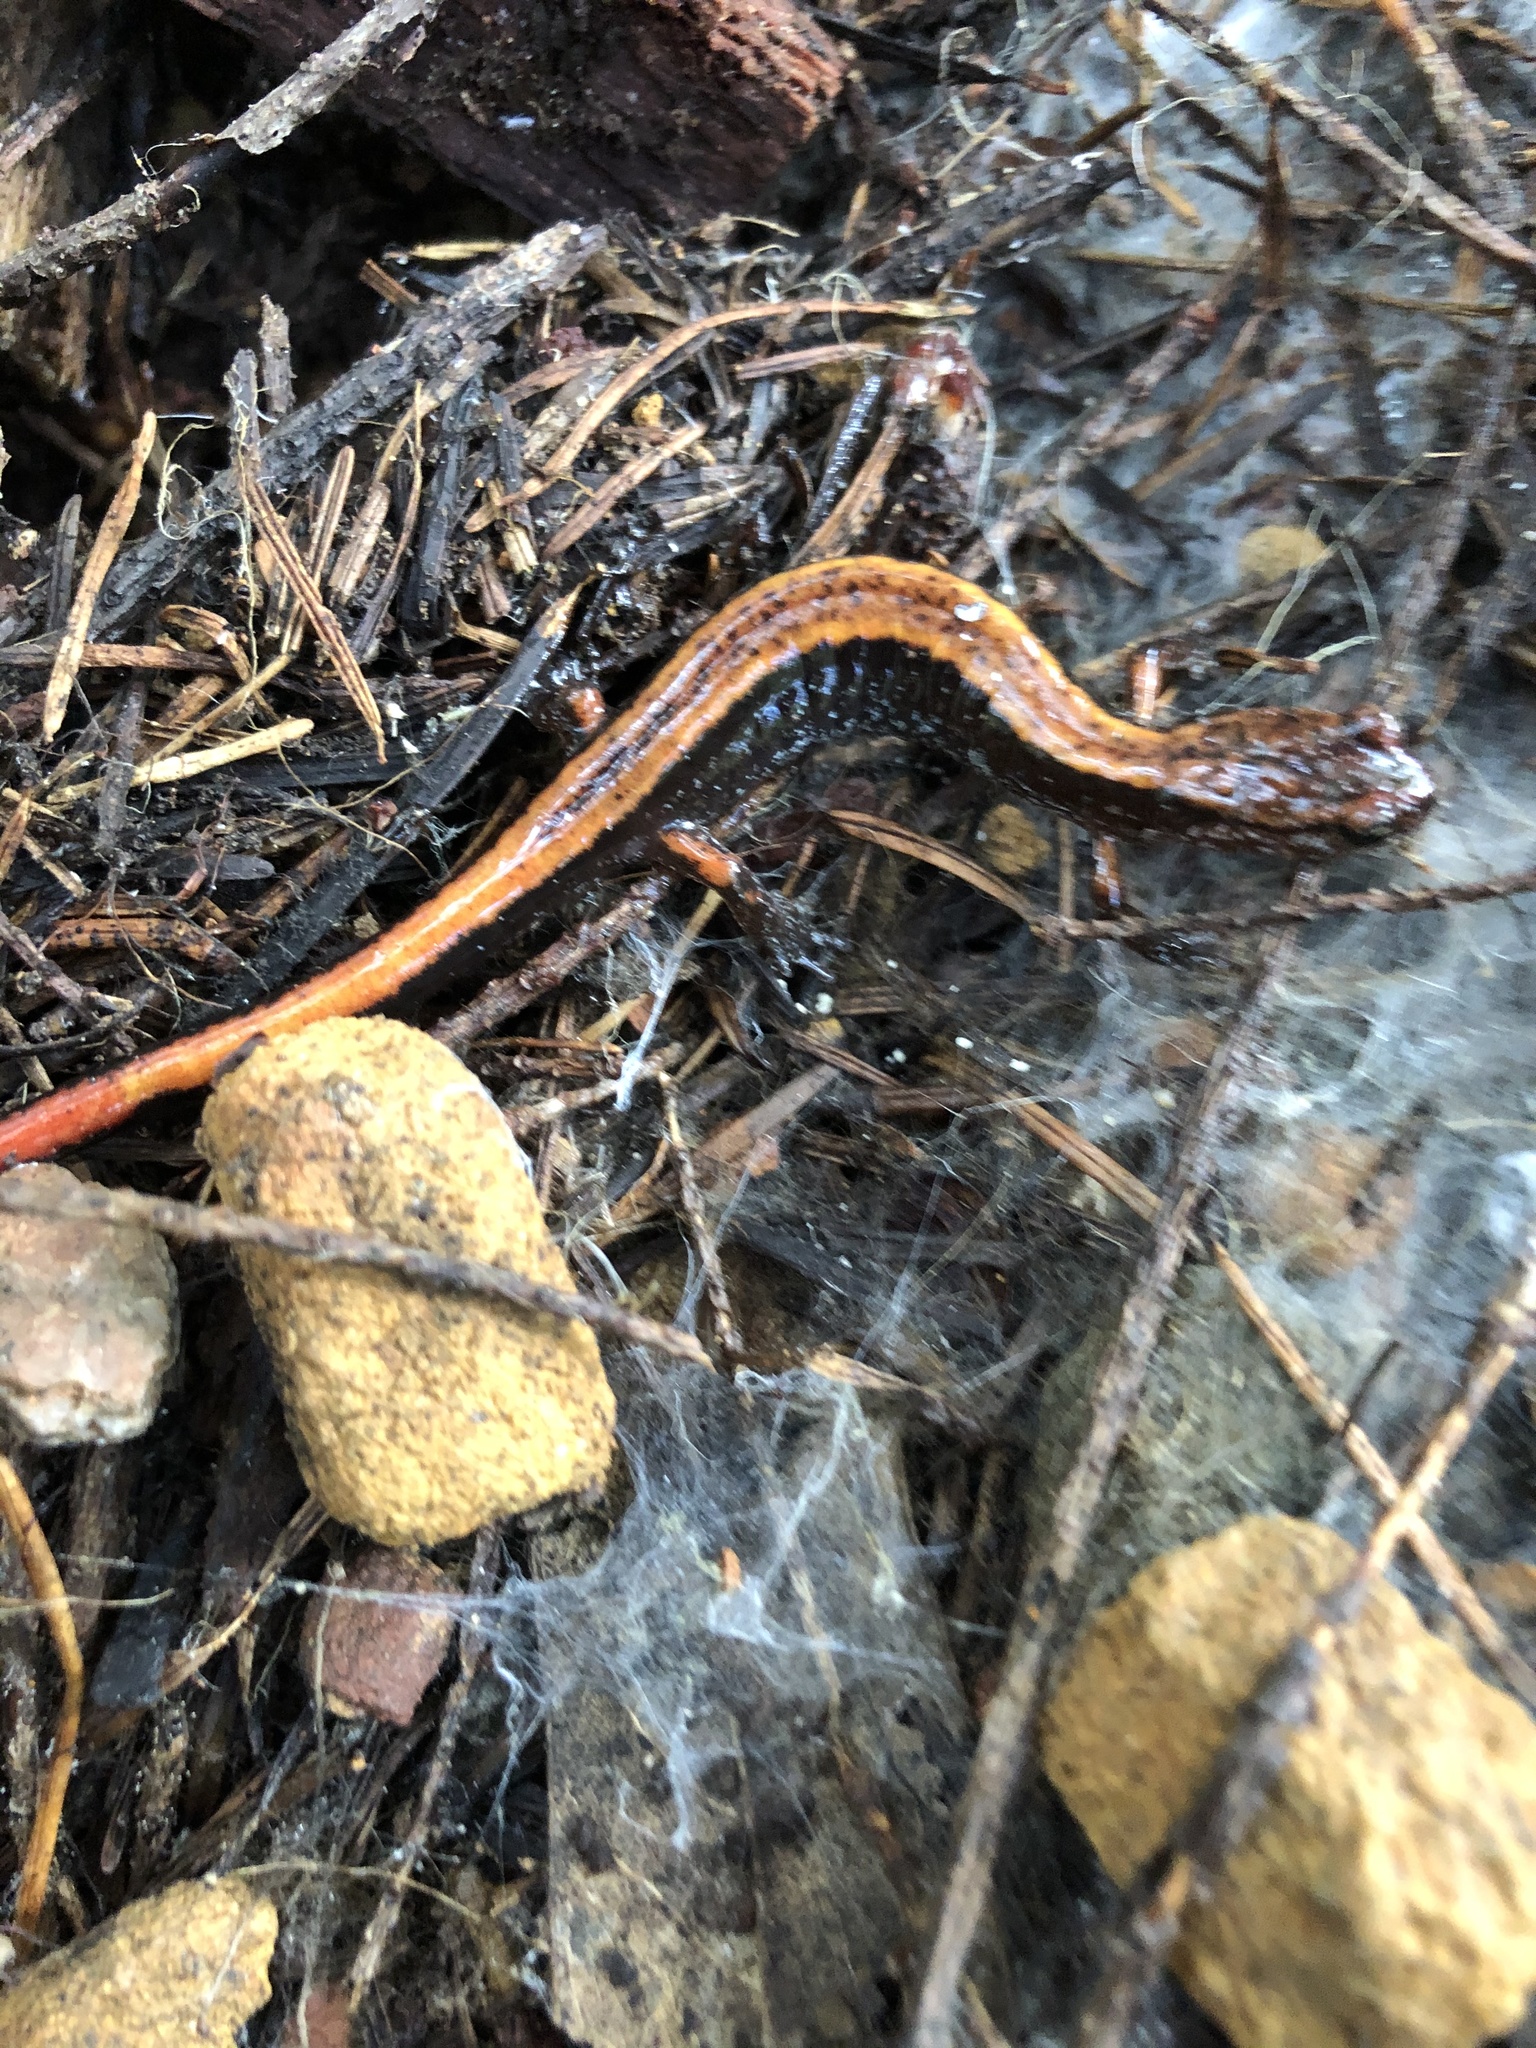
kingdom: Animalia
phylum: Chordata
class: Amphibia
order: Caudata
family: Plethodontidae
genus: Plethodon
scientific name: Plethodon vehiculum
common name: Western red-backed salamander
